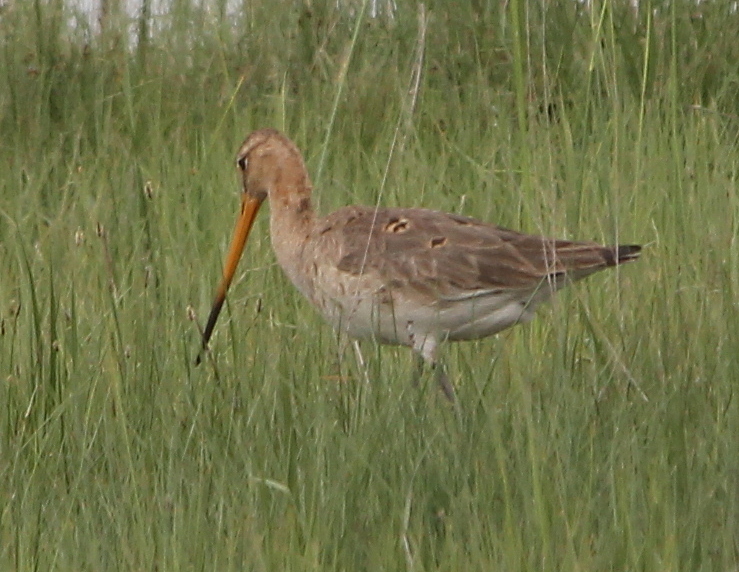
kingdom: Animalia
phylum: Chordata
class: Aves
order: Charadriiformes
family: Scolopacidae
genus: Limosa
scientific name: Limosa limosa
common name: Black-tailed godwit
